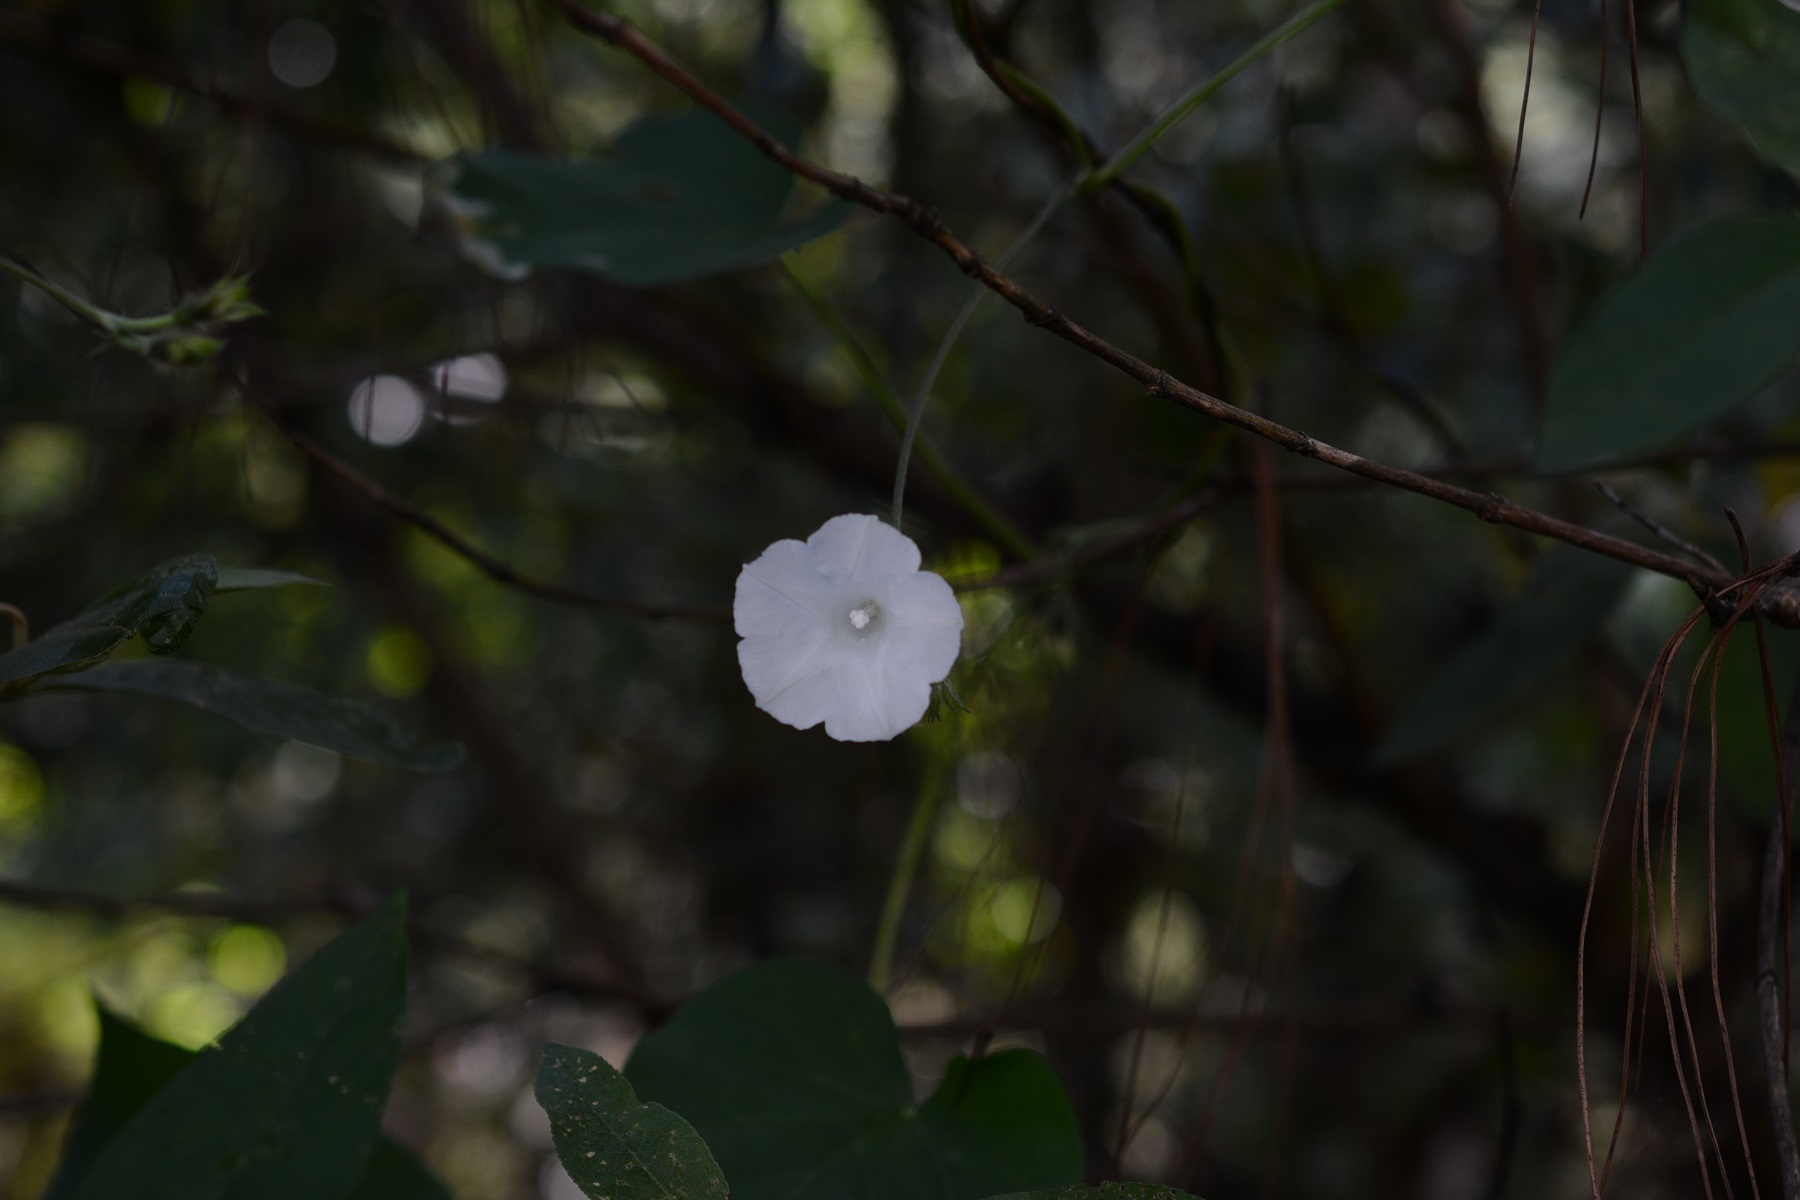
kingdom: Plantae
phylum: Tracheophyta
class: Magnoliopsida
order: Solanales
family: Convolvulaceae
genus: Ipomoea
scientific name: Ipomoea purpurea
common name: Common morning-glory
